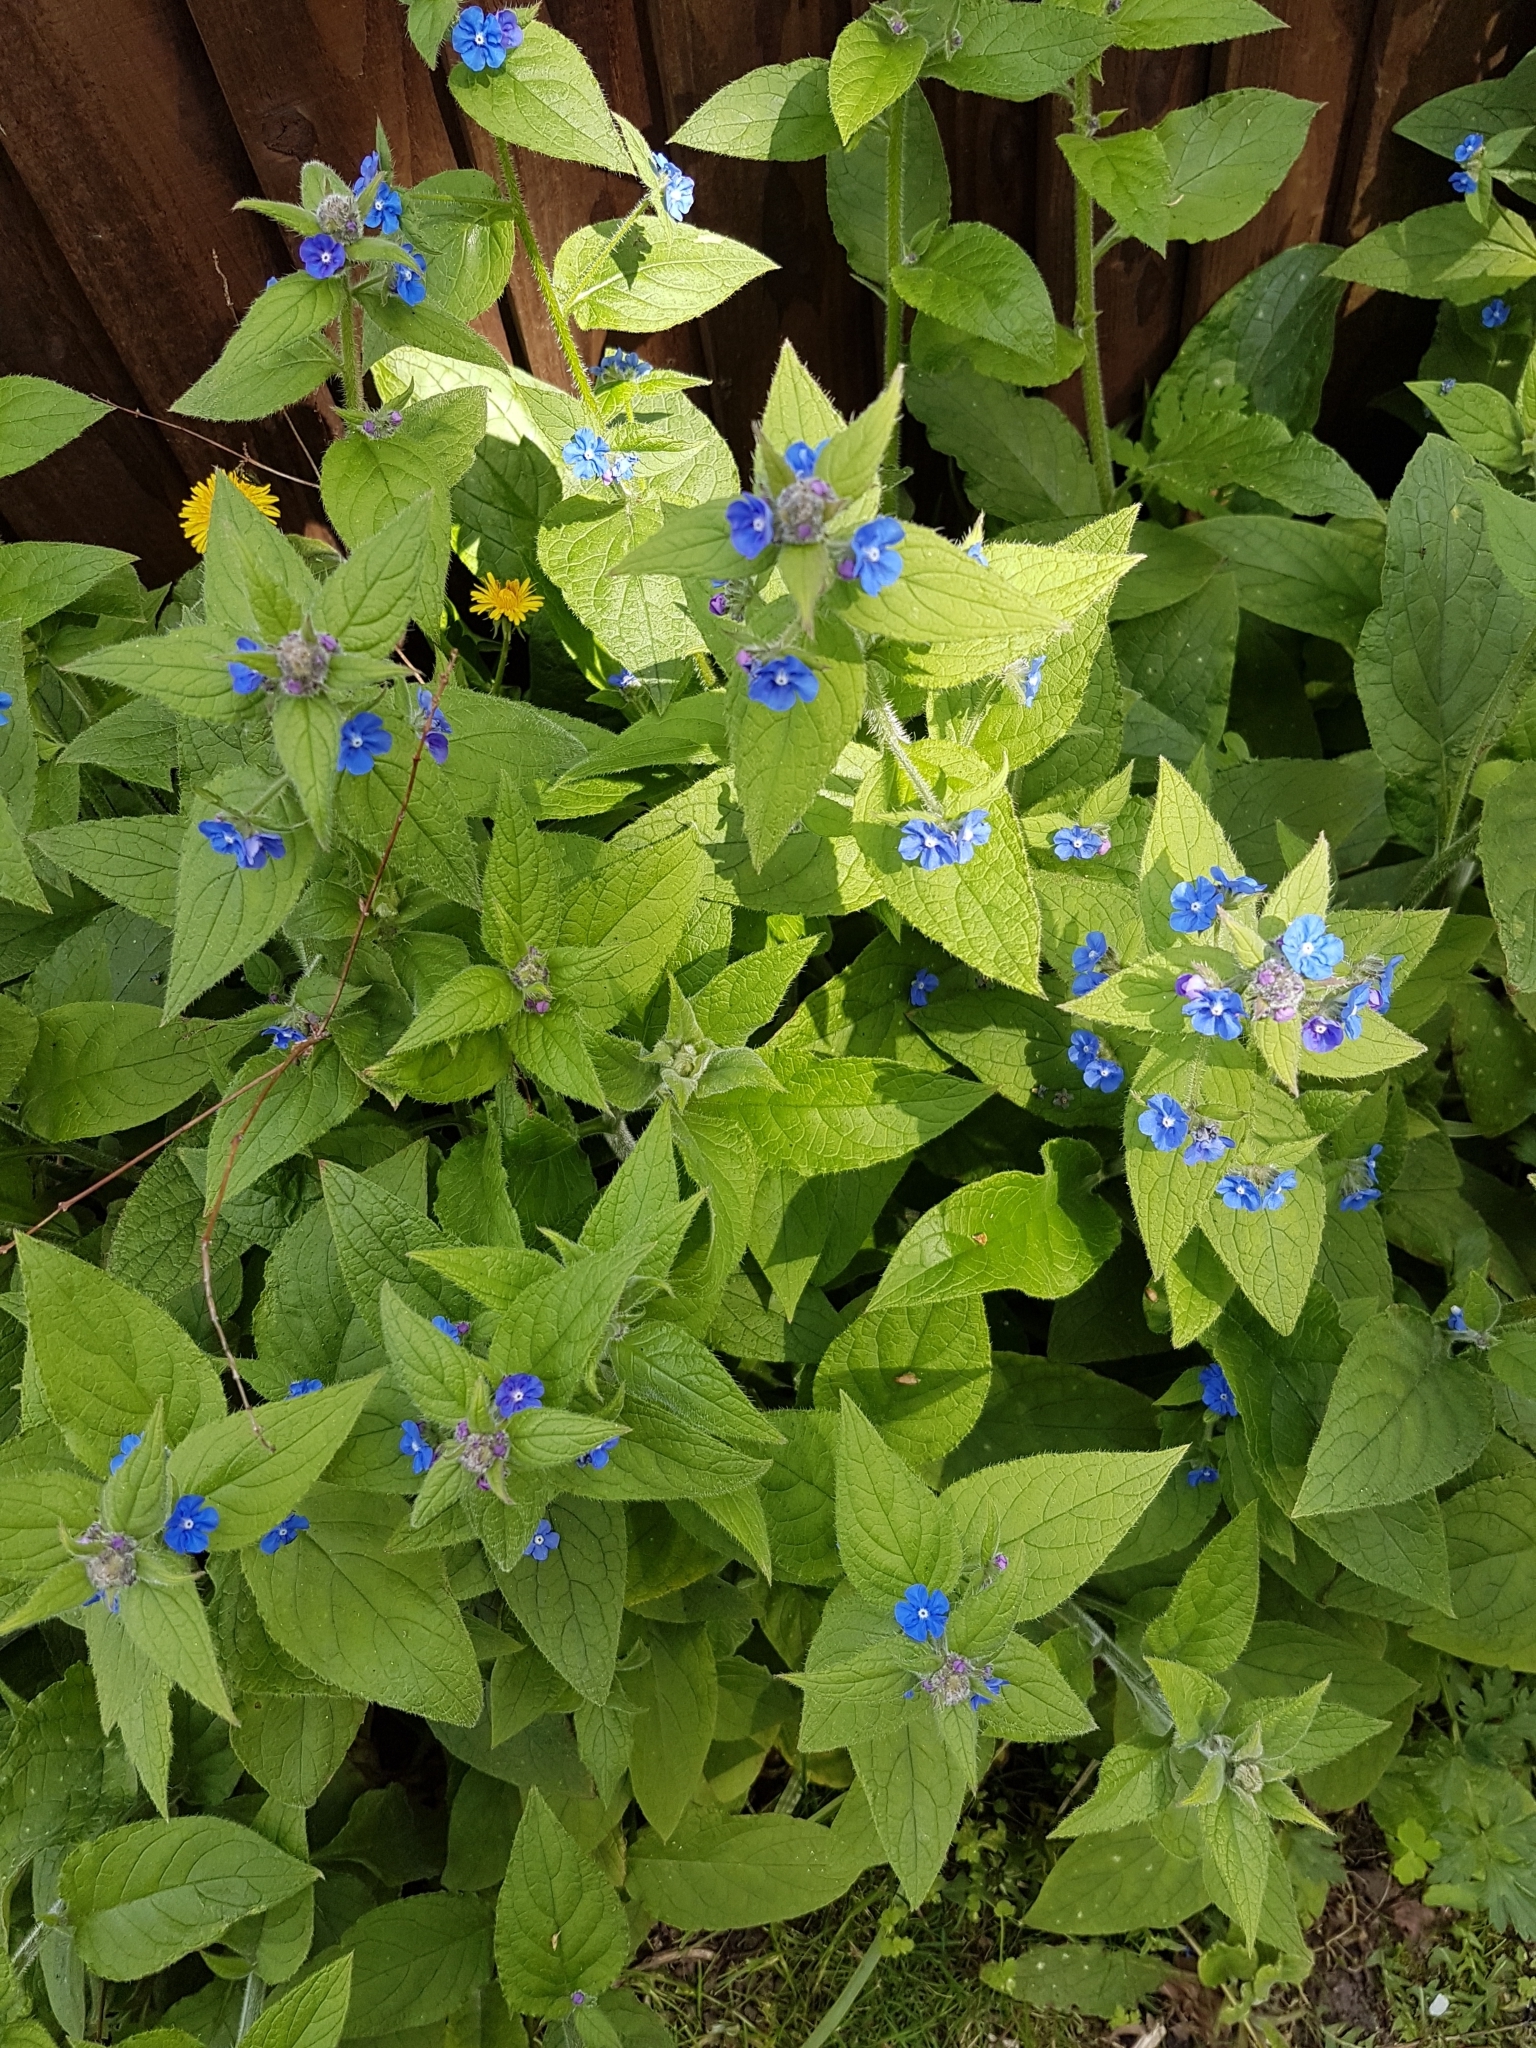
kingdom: Plantae
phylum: Tracheophyta
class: Magnoliopsida
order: Boraginales
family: Boraginaceae
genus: Pentaglottis
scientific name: Pentaglottis sempervirens
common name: Green alkanet
